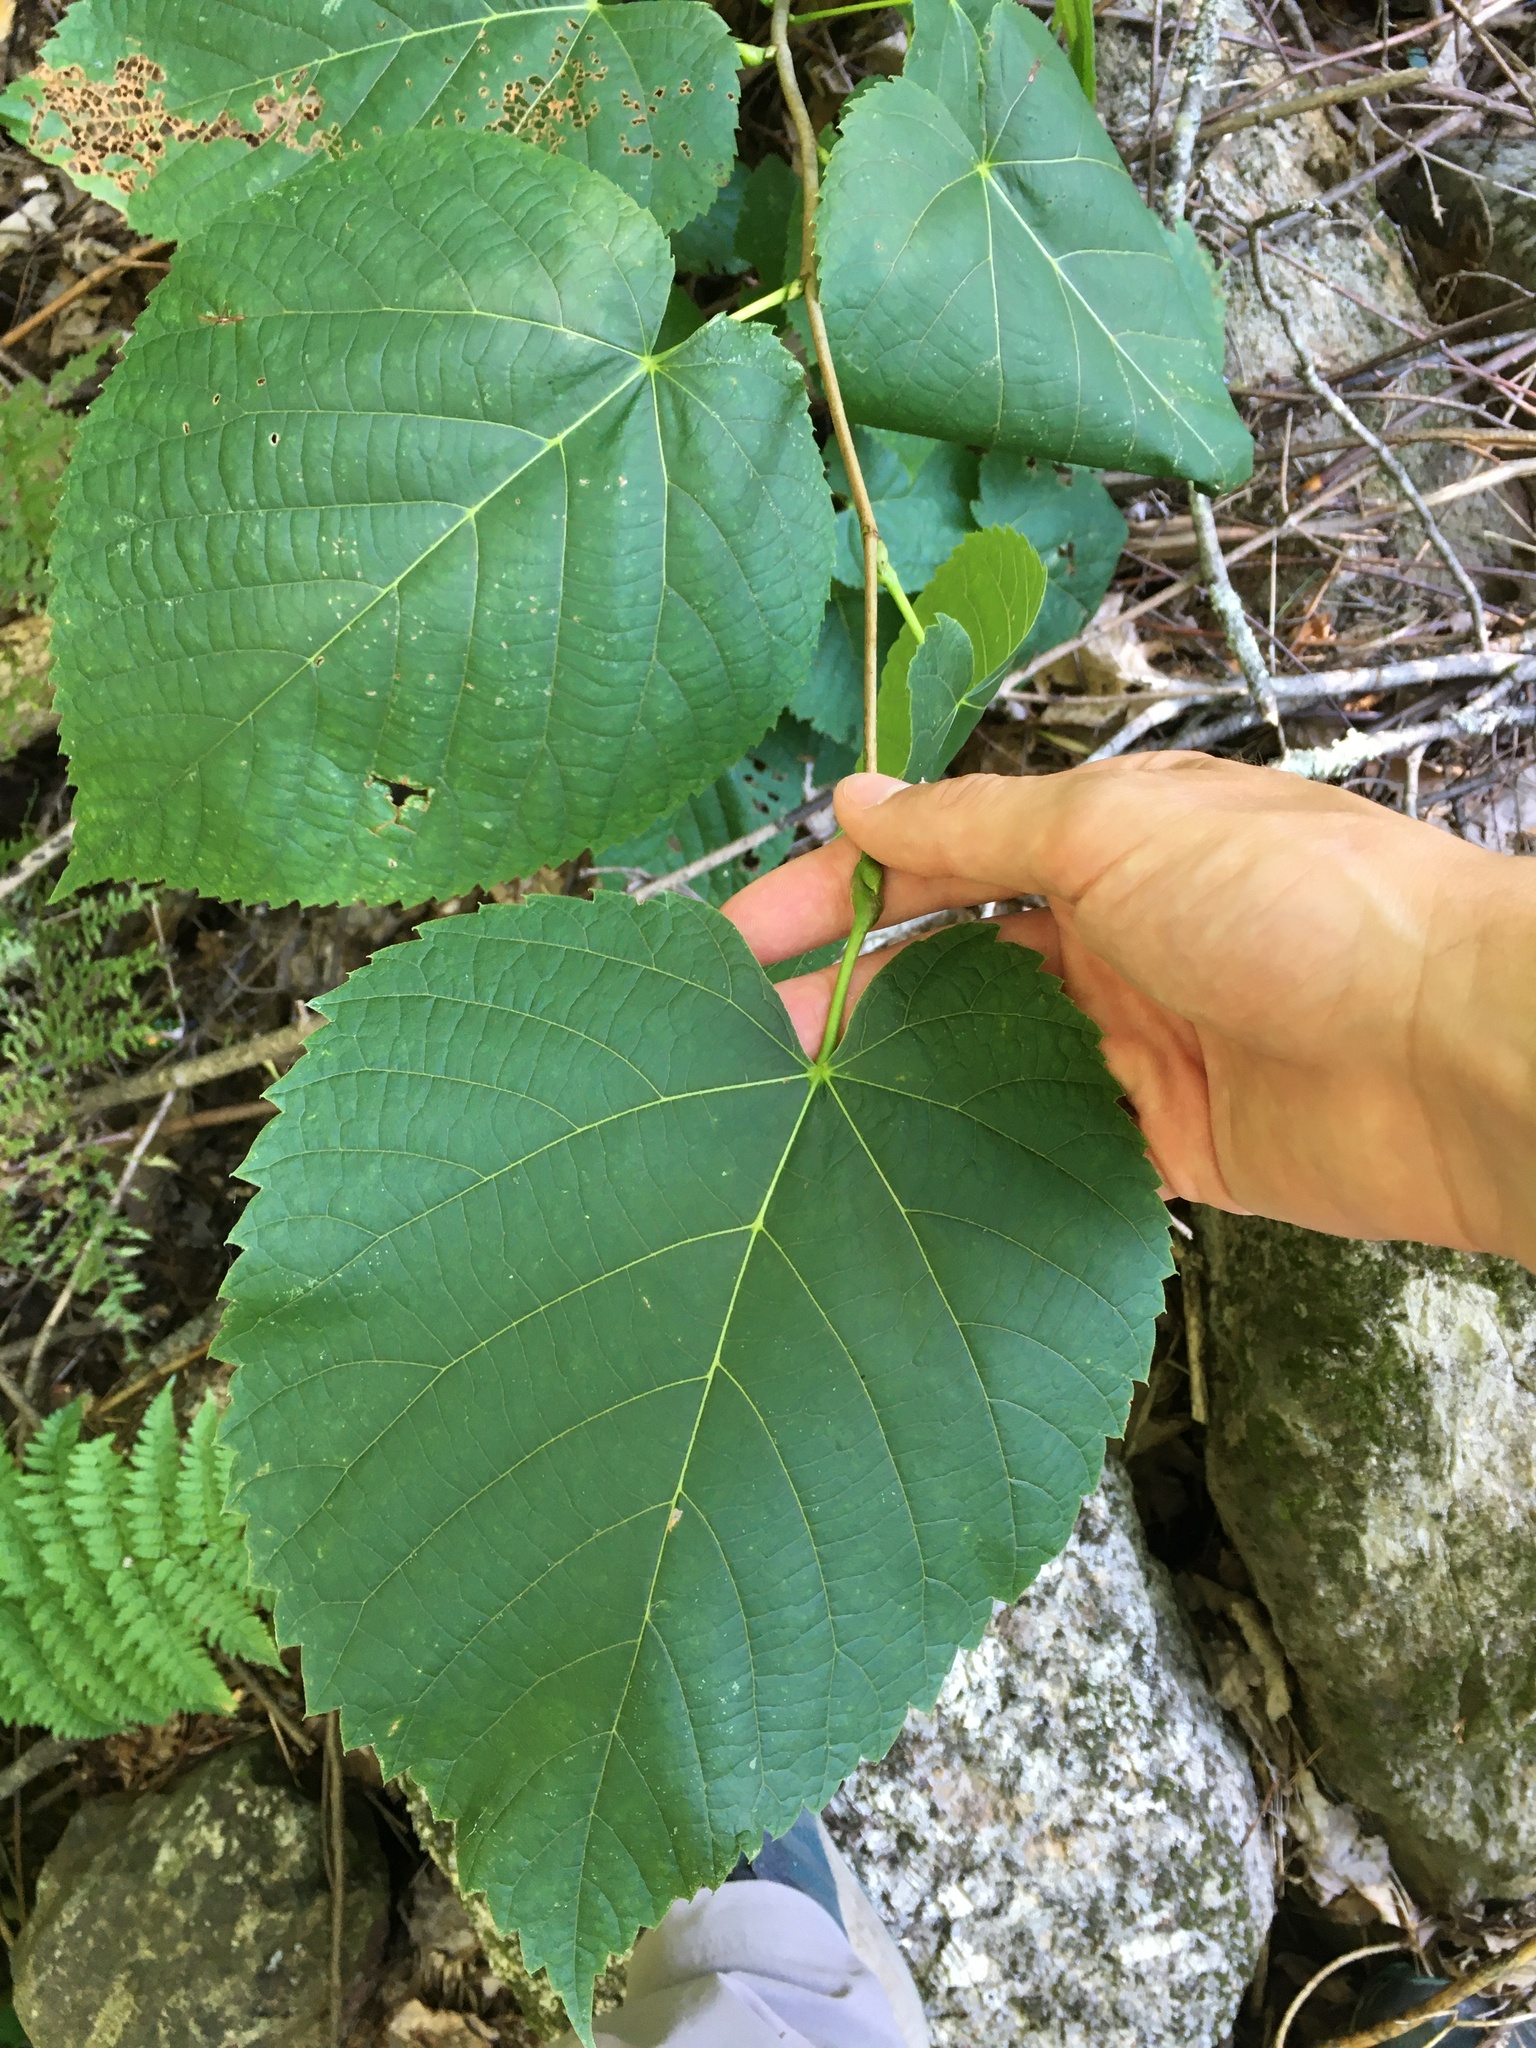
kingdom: Plantae
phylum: Tracheophyta
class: Magnoliopsida
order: Malvales
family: Malvaceae
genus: Tilia
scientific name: Tilia americana
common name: Basswood
